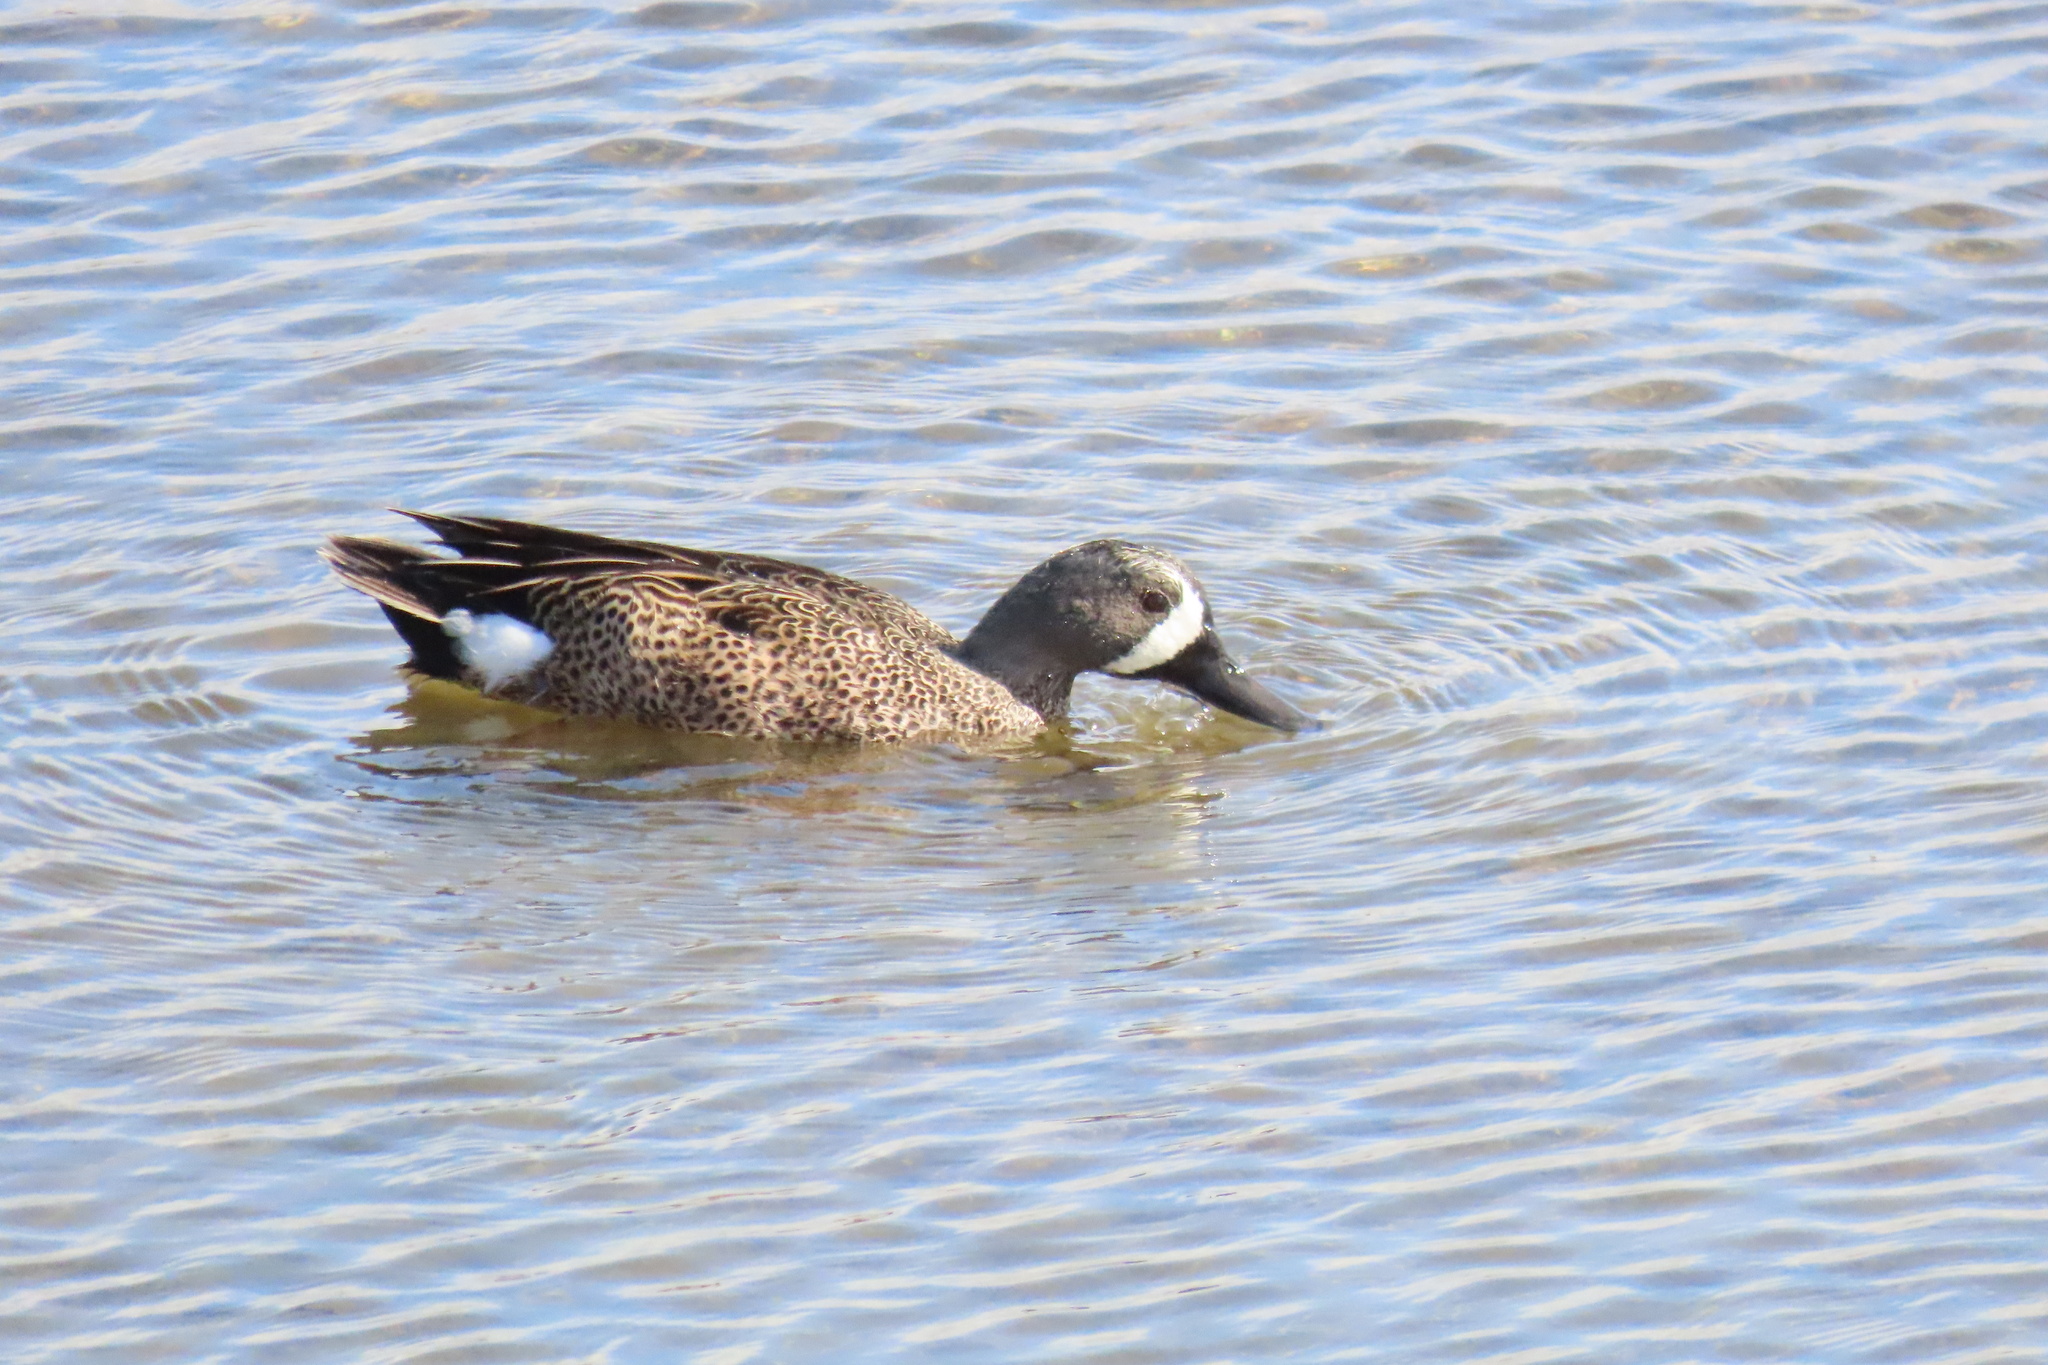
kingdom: Animalia
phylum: Chordata
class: Aves
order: Anseriformes
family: Anatidae
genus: Spatula
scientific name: Spatula discors
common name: Blue-winged teal
